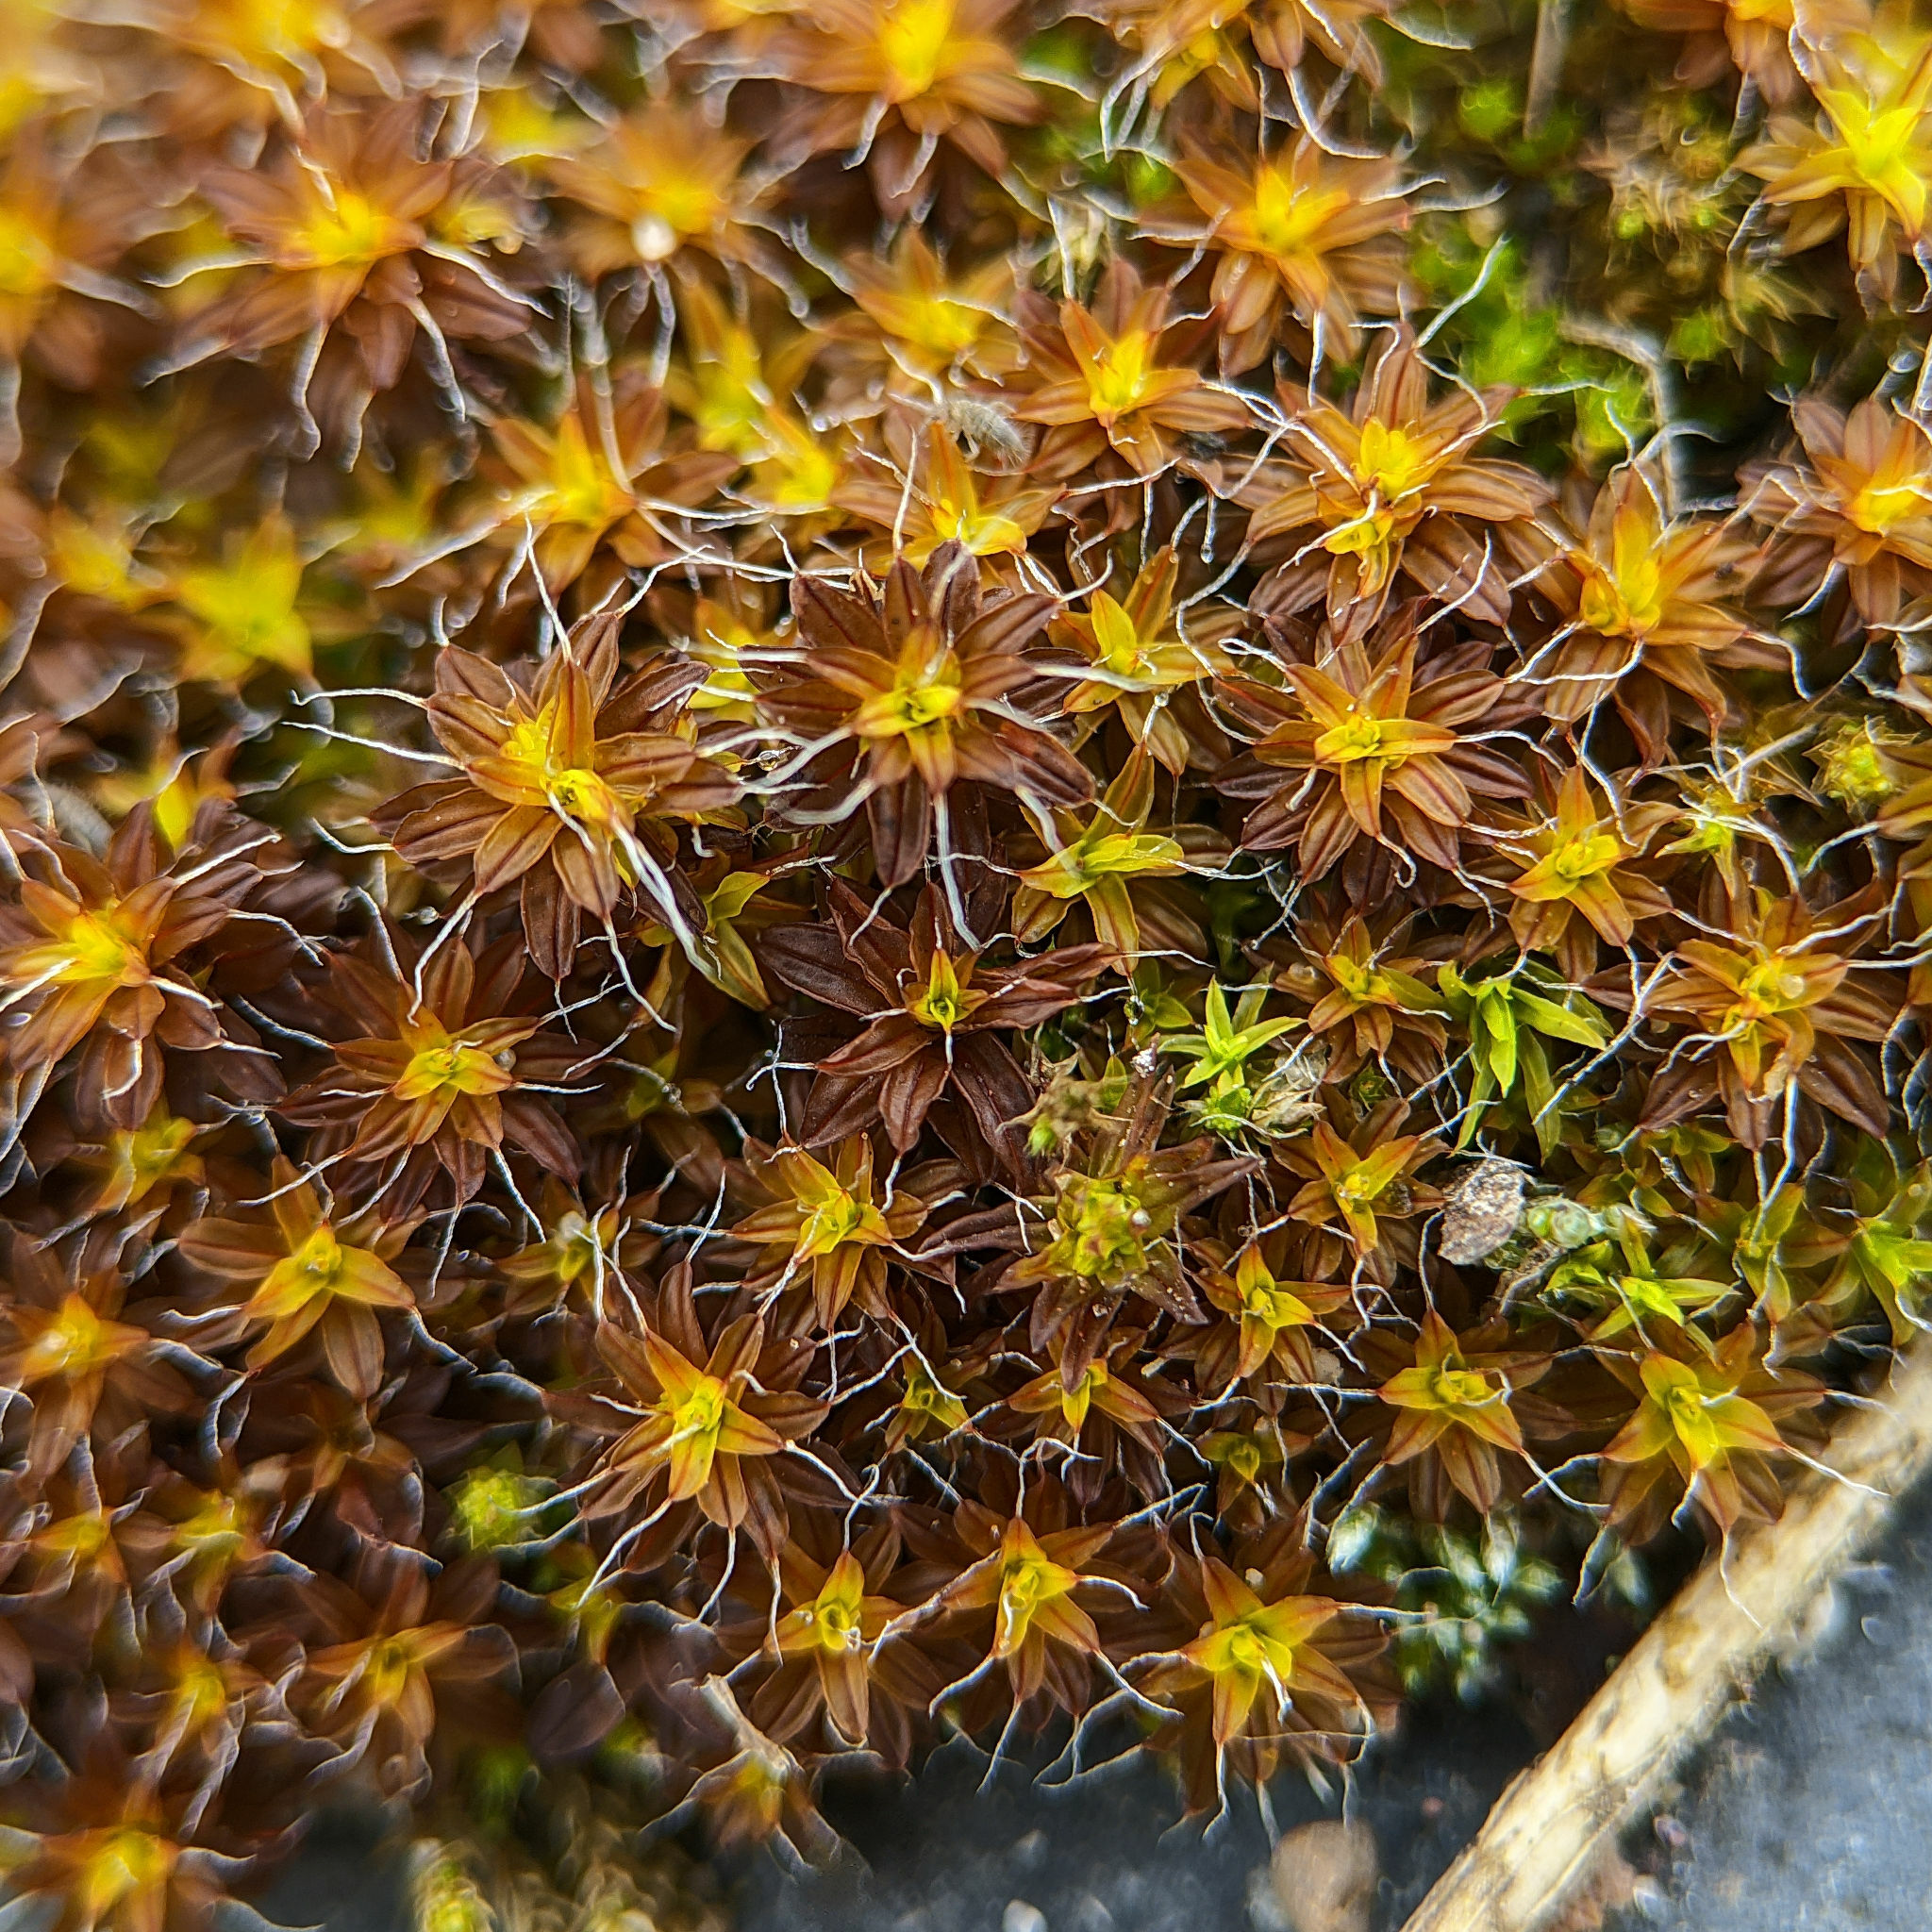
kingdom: Plantae
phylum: Bryophyta
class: Bryopsida
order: Pottiales
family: Pottiaceae
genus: Syntrichia
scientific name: Syntrichia ruralis
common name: Sidewalk screw moss
